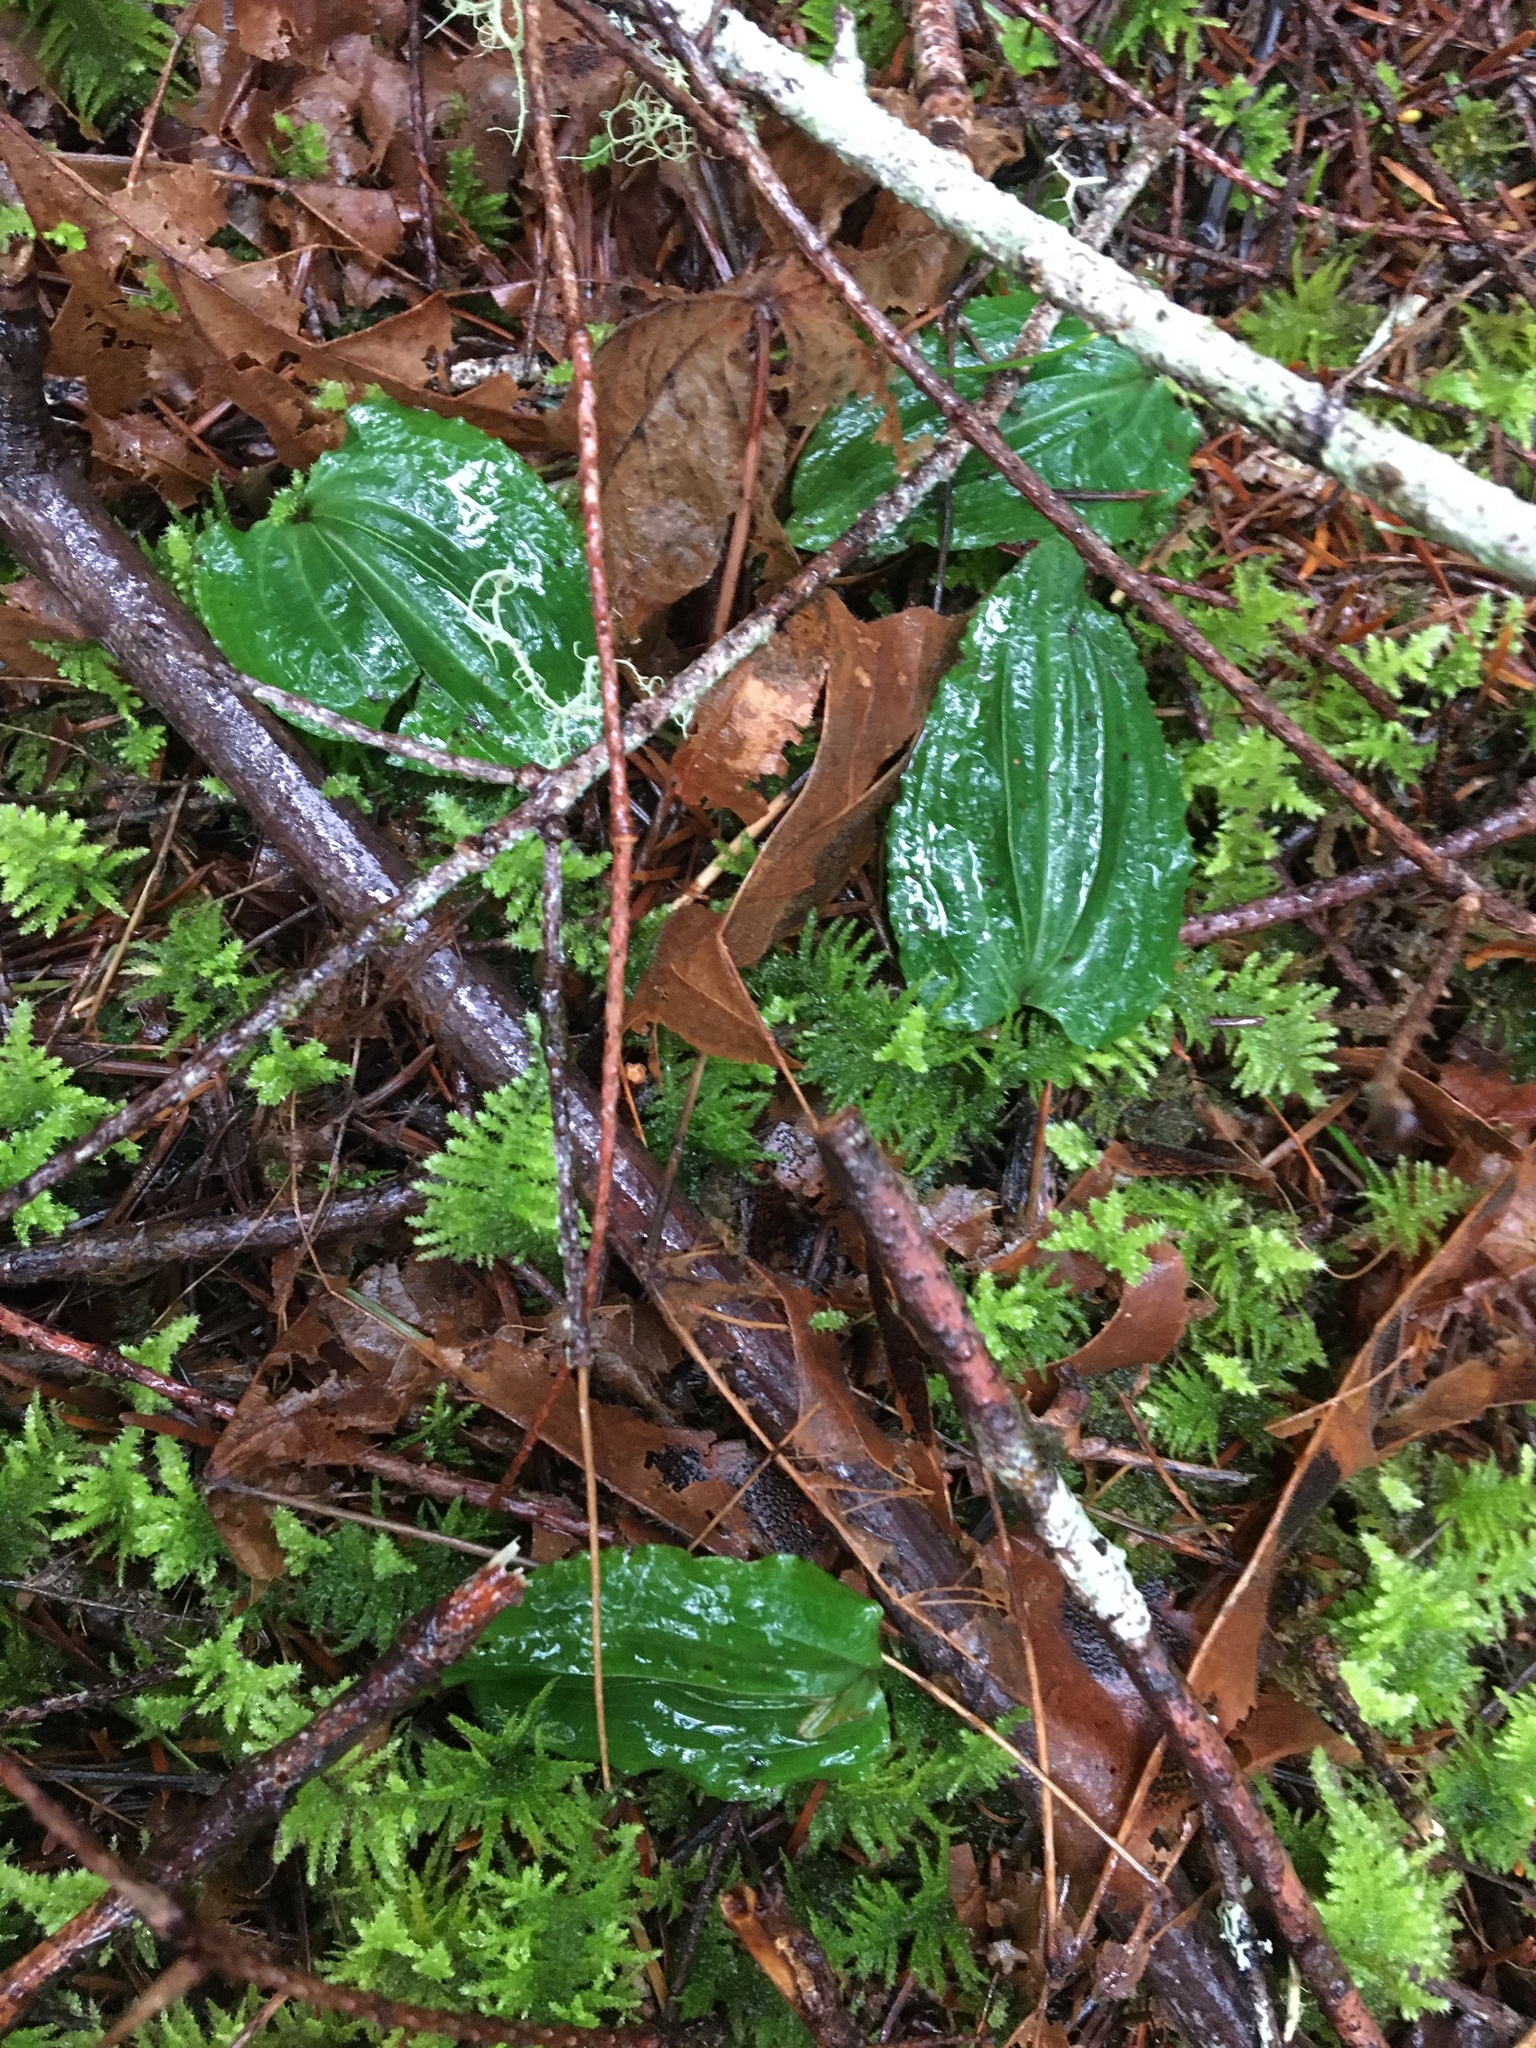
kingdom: Plantae
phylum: Tracheophyta
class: Liliopsida
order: Asparagales
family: Orchidaceae
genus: Calypso
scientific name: Calypso bulbosa
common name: Calypso
